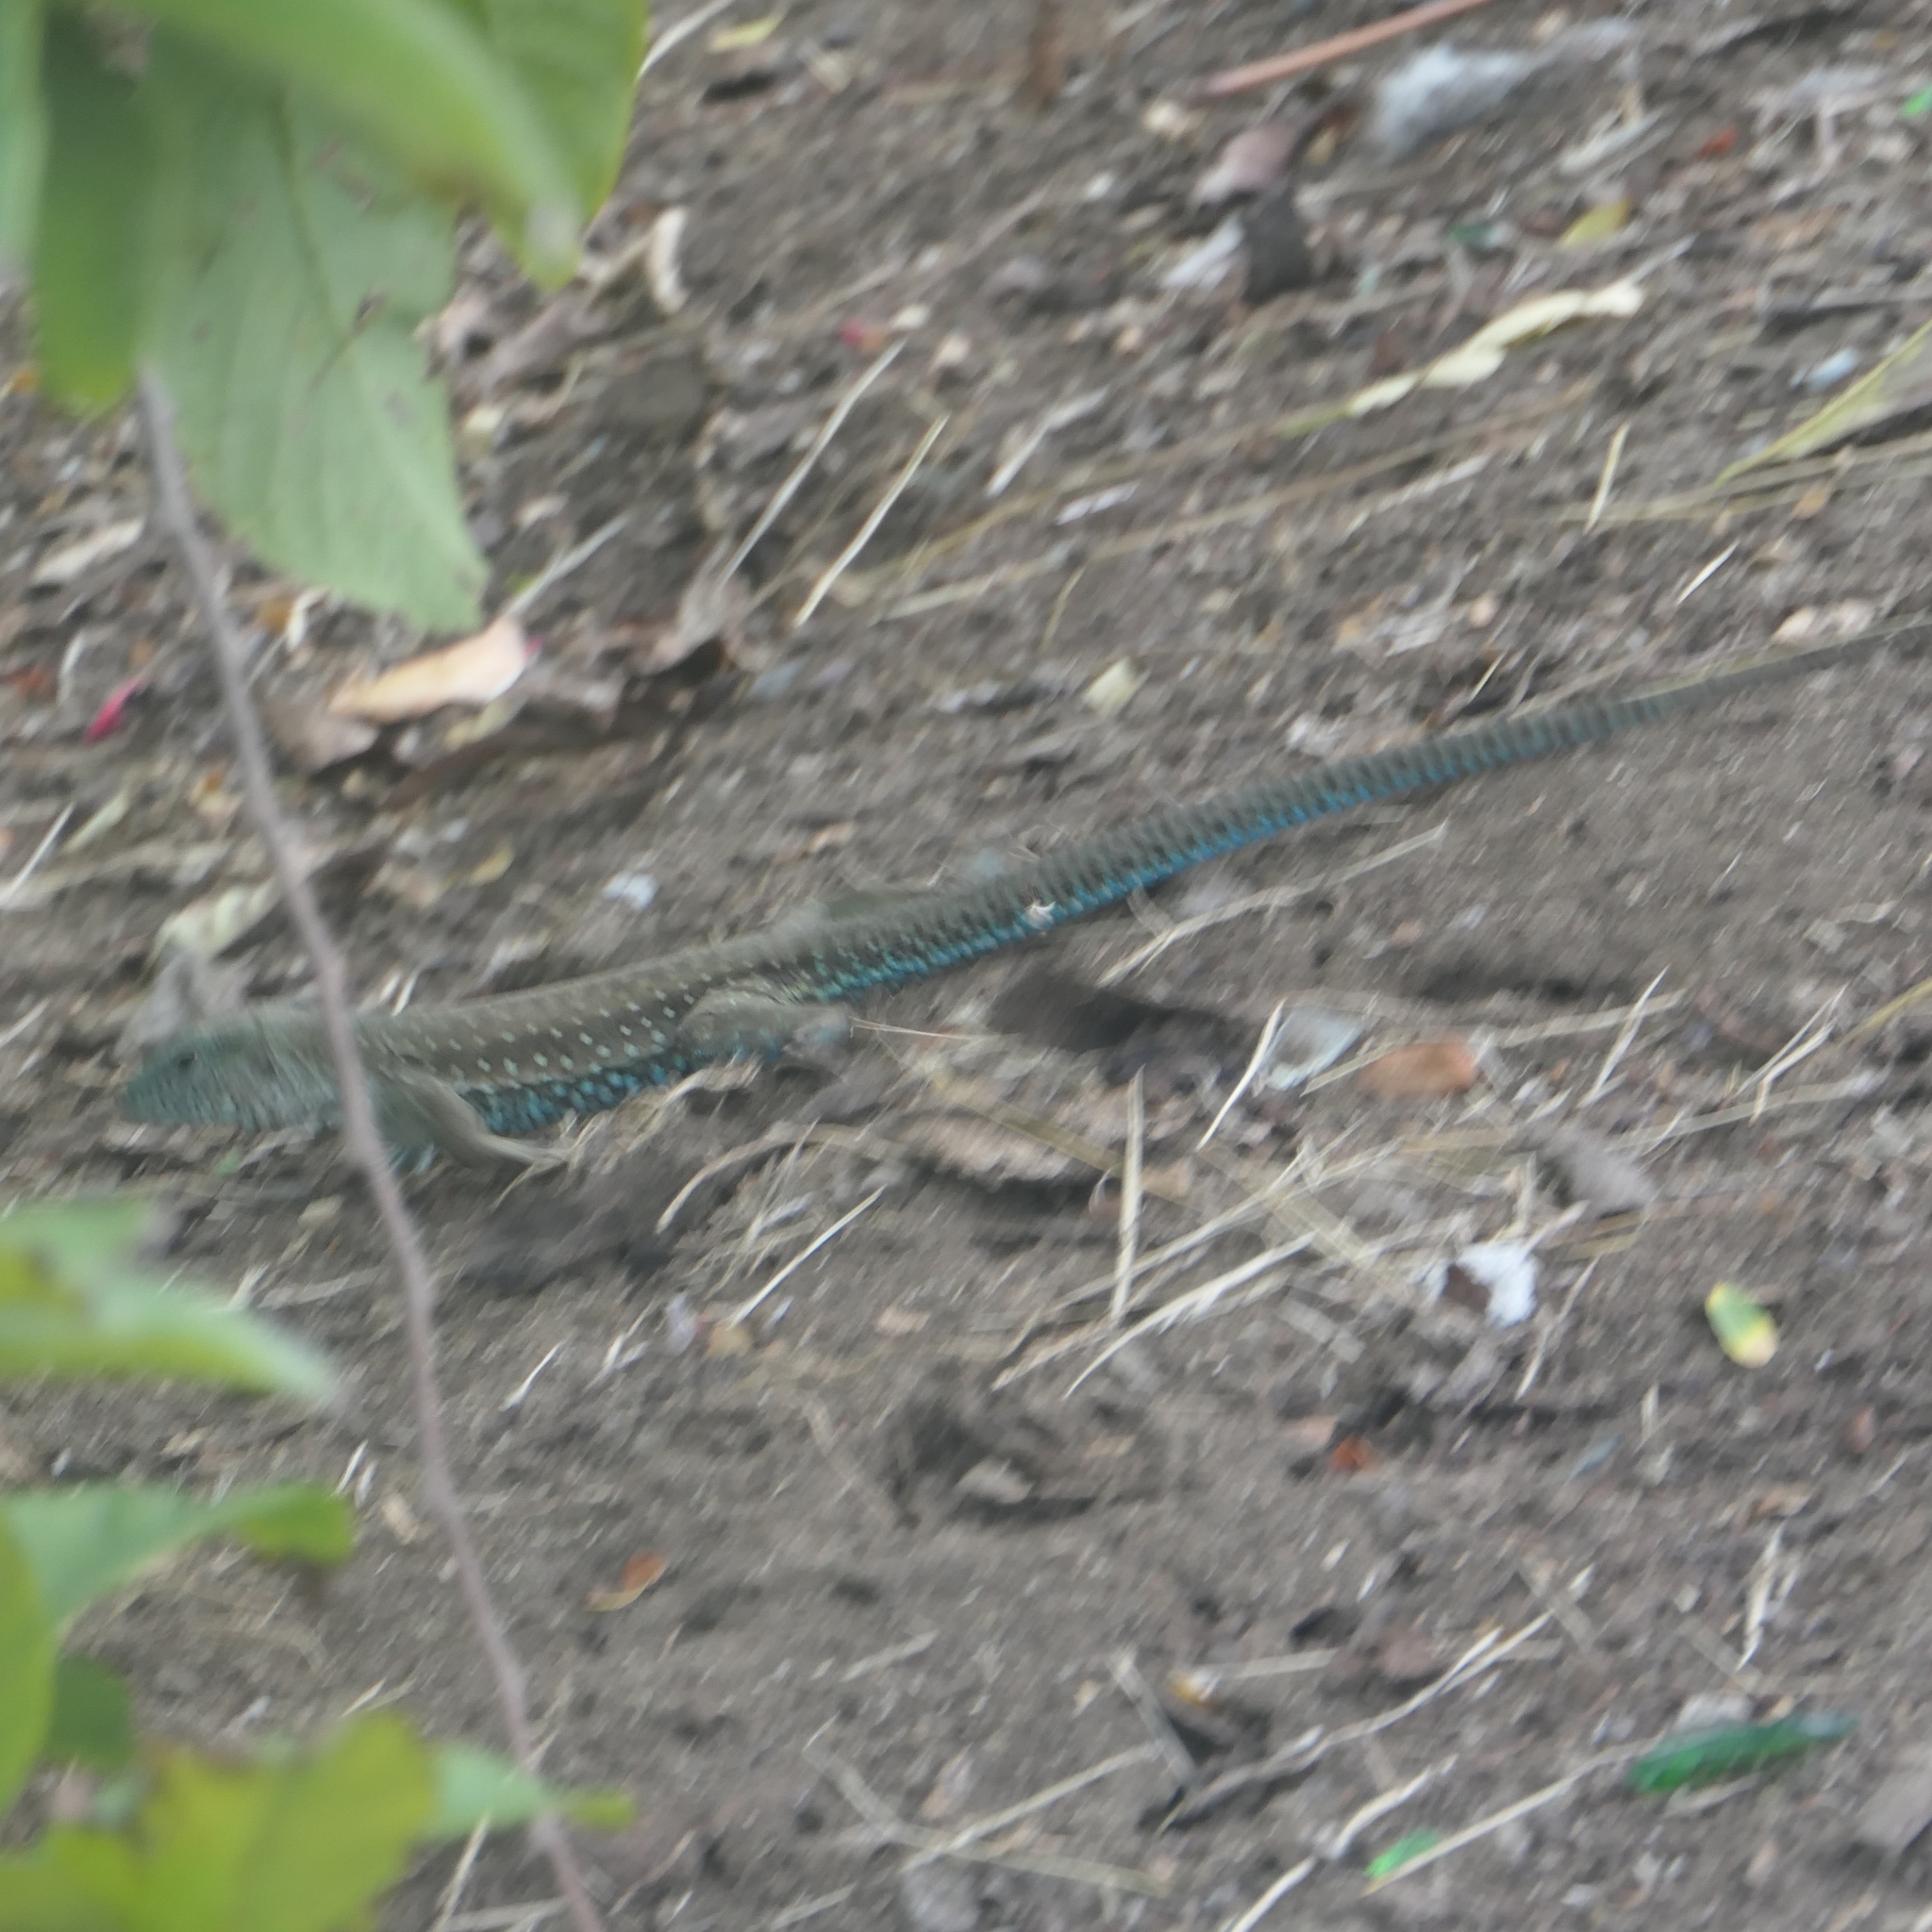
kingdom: Animalia
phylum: Chordata
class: Squamata
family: Teiidae
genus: Ameiva
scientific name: Ameiva tobagana
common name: Antillean ameiva
